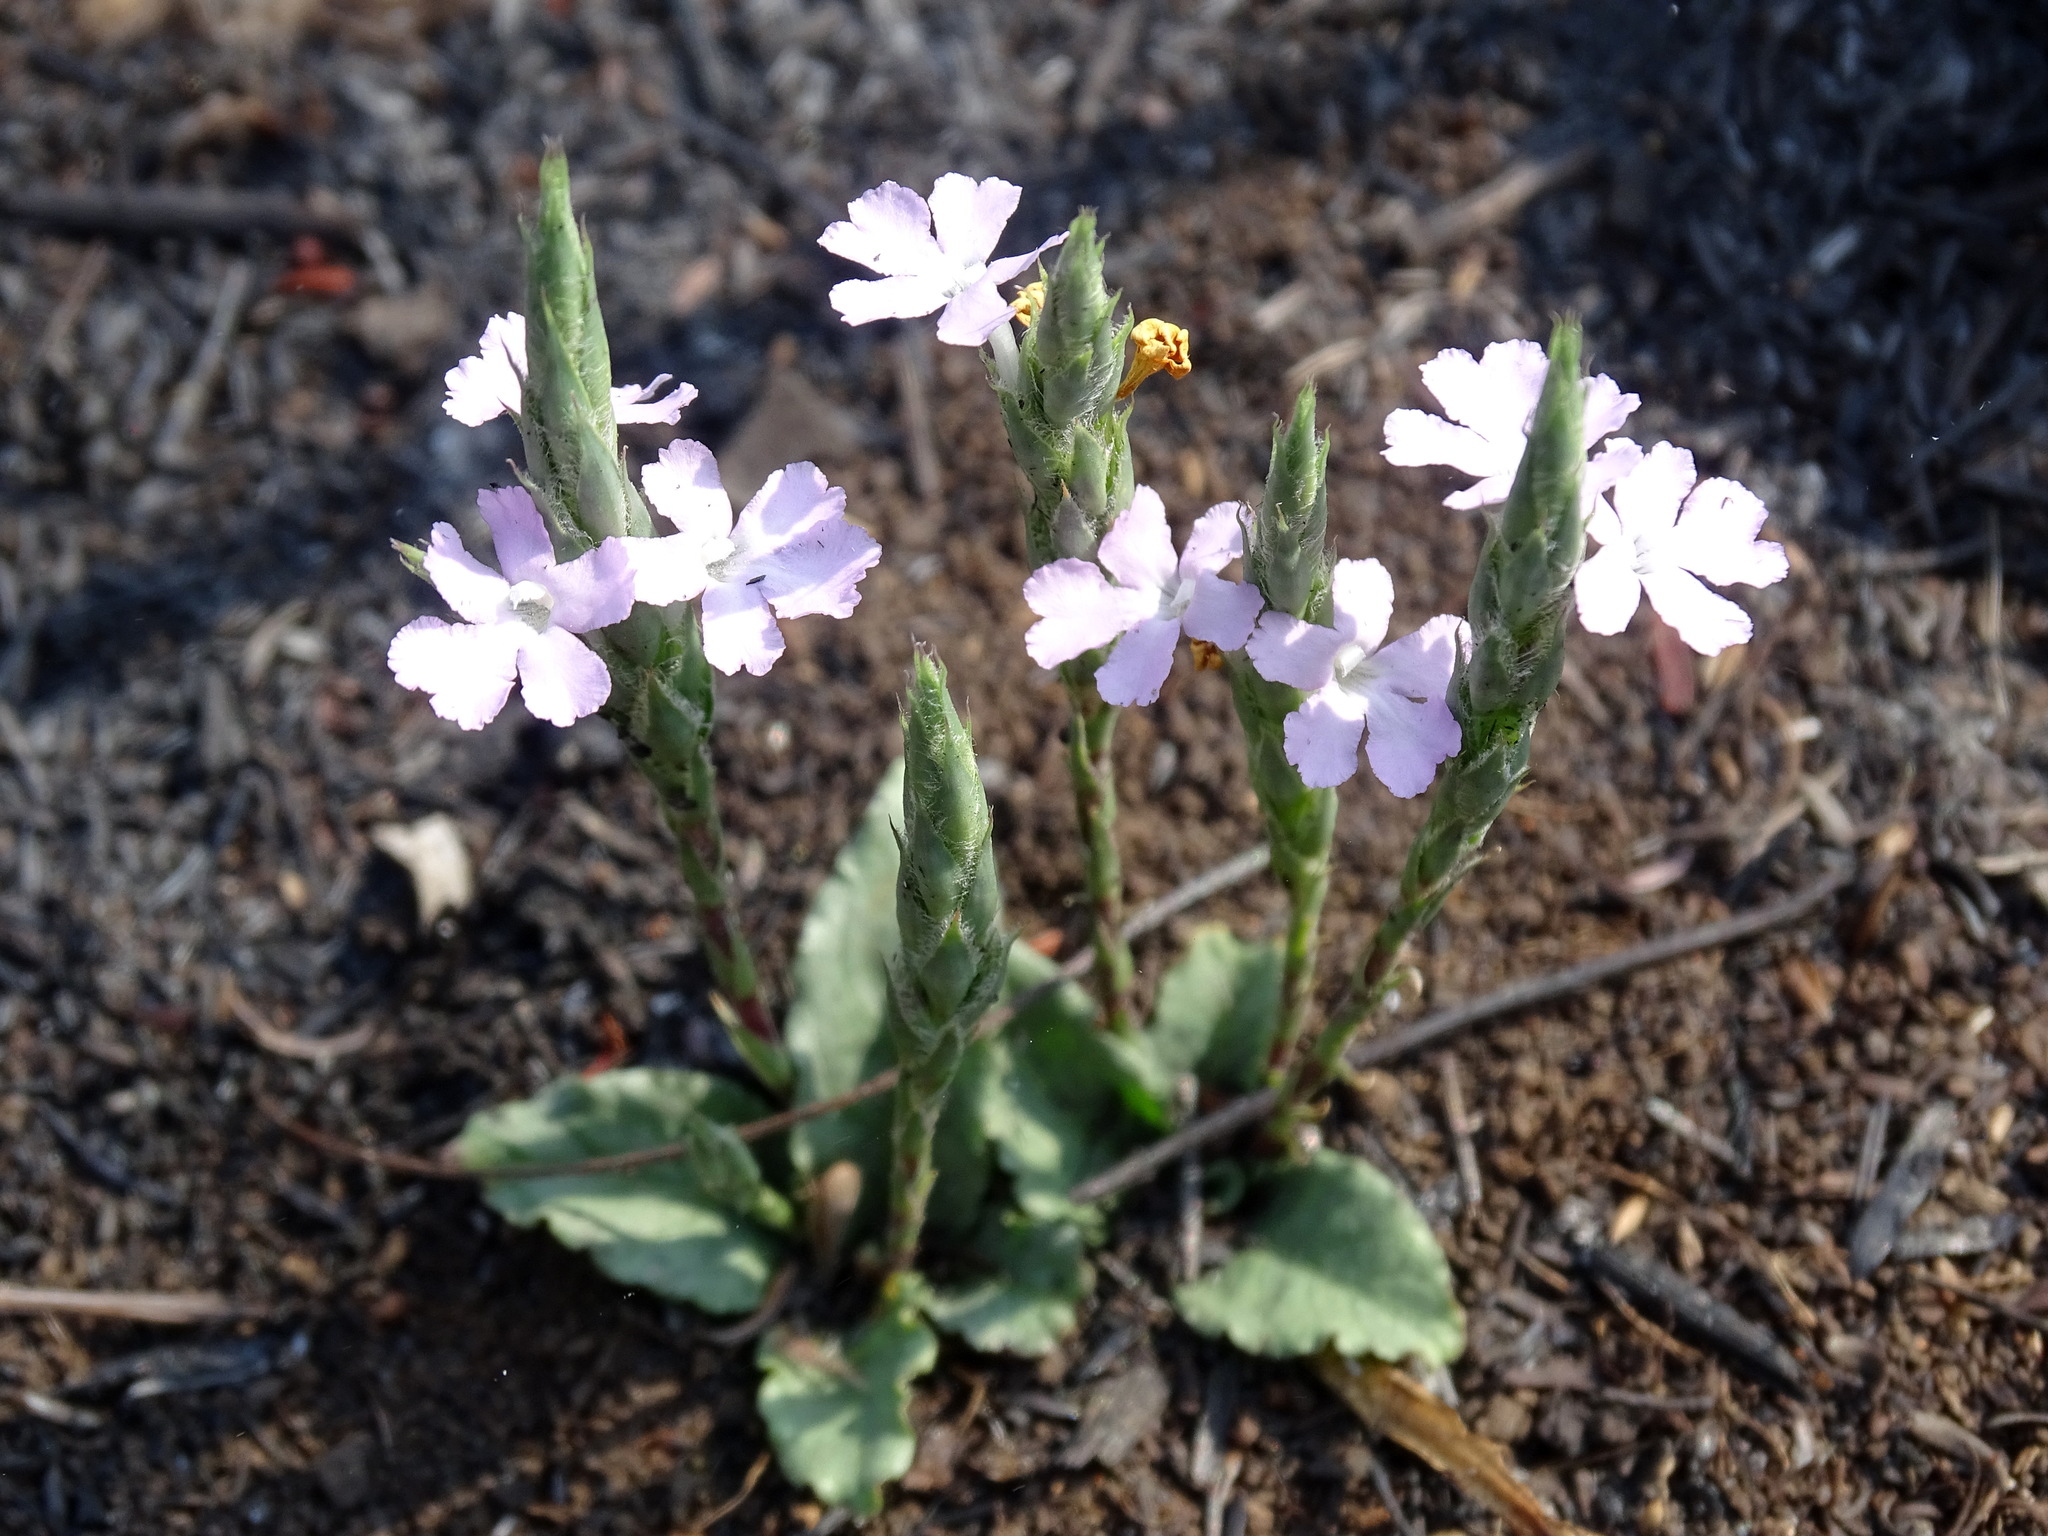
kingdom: Plantae
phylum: Tracheophyta
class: Magnoliopsida
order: Lamiales
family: Acanthaceae
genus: Elytraria
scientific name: Elytraria bromoides
